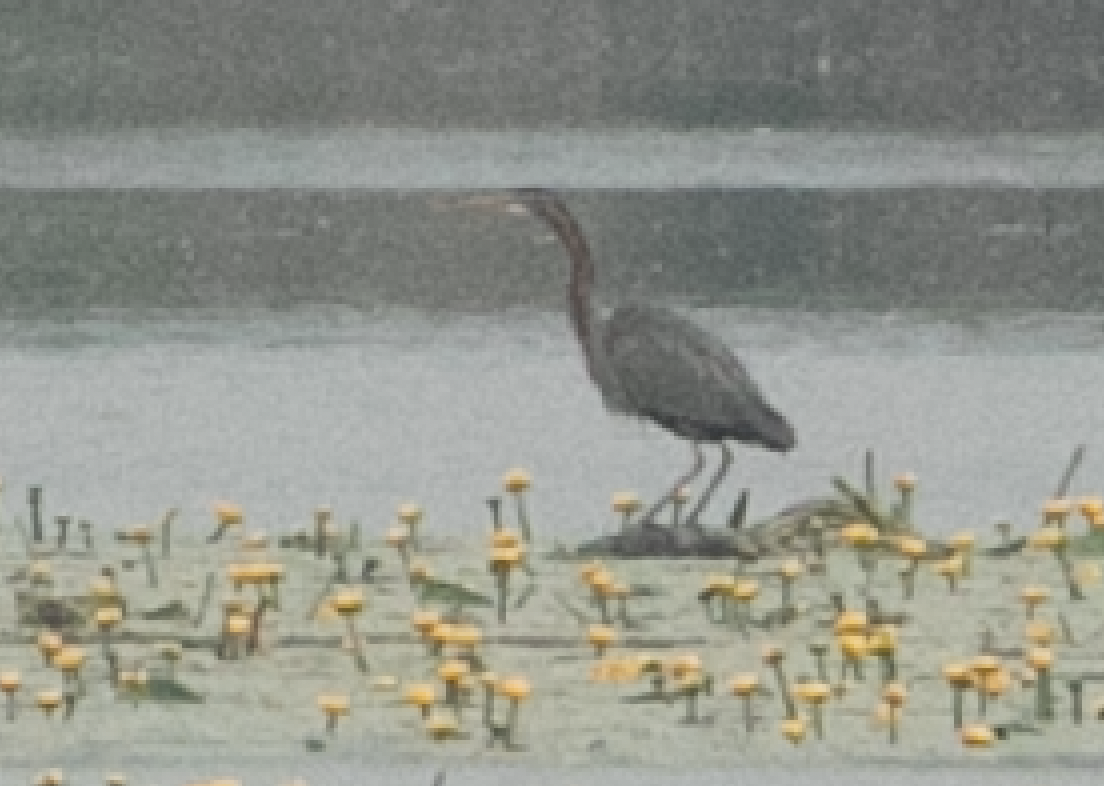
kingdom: Animalia
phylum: Chordata
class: Aves
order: Pelecaniformes
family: Ardeidae
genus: Ardea
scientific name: Ardea purpurea
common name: Purple heron
